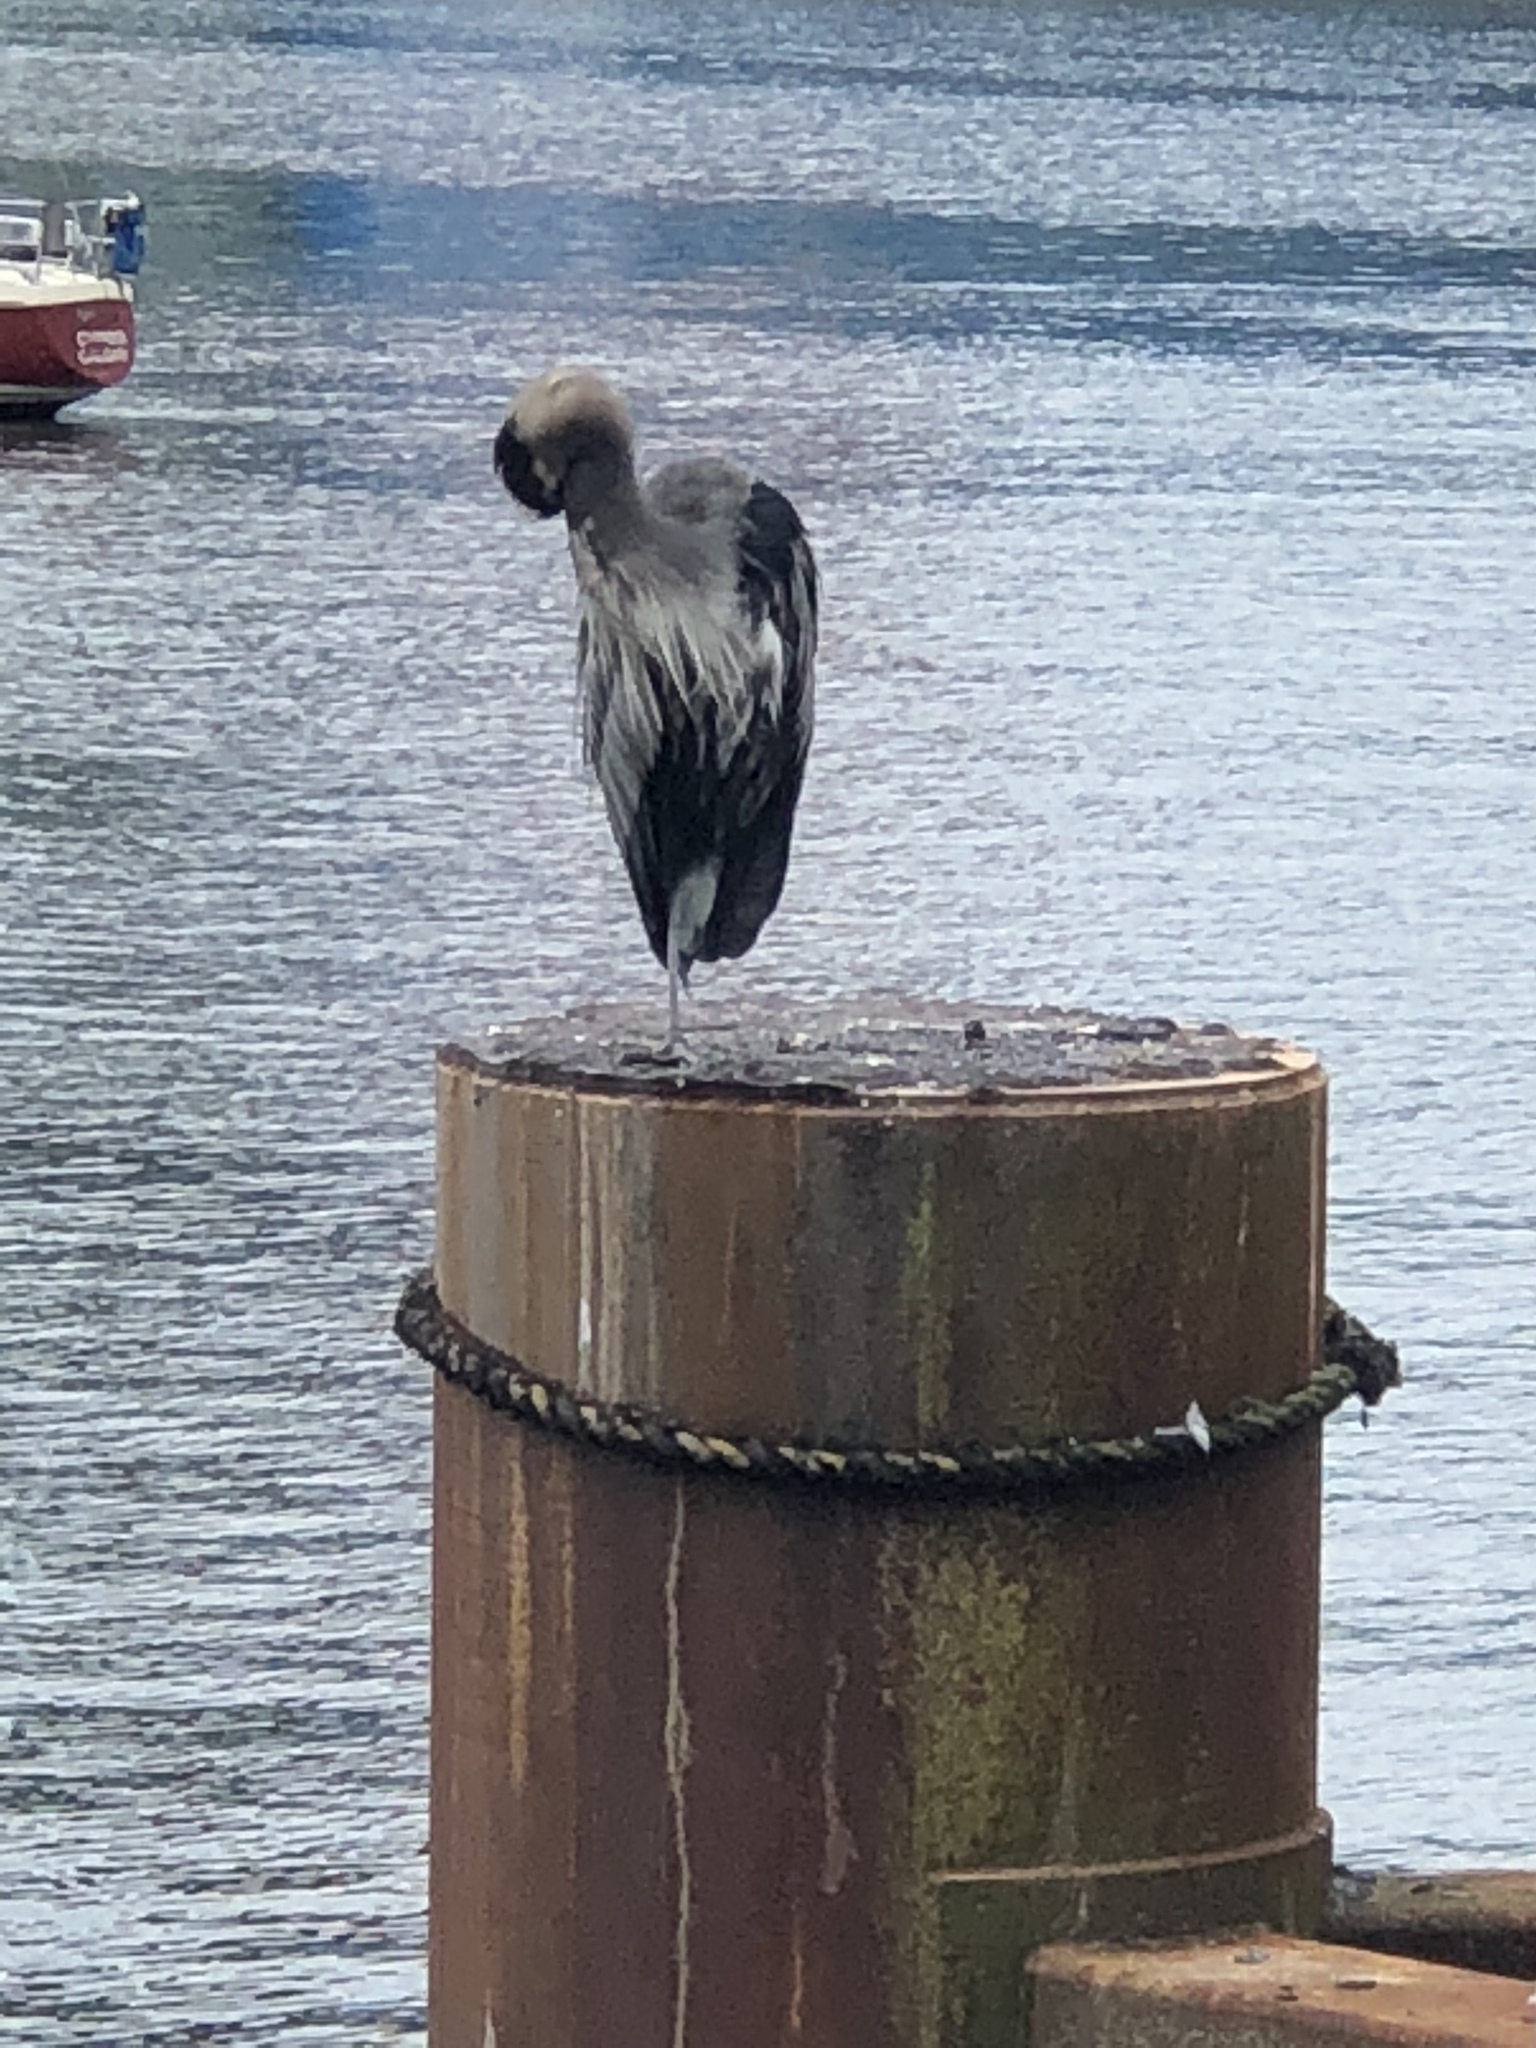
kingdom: Animalia
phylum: Chordata
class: Aves
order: Pelecaniformes
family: Ardeidae
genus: Ardea
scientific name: Ardea herodias
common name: Great blue heron
